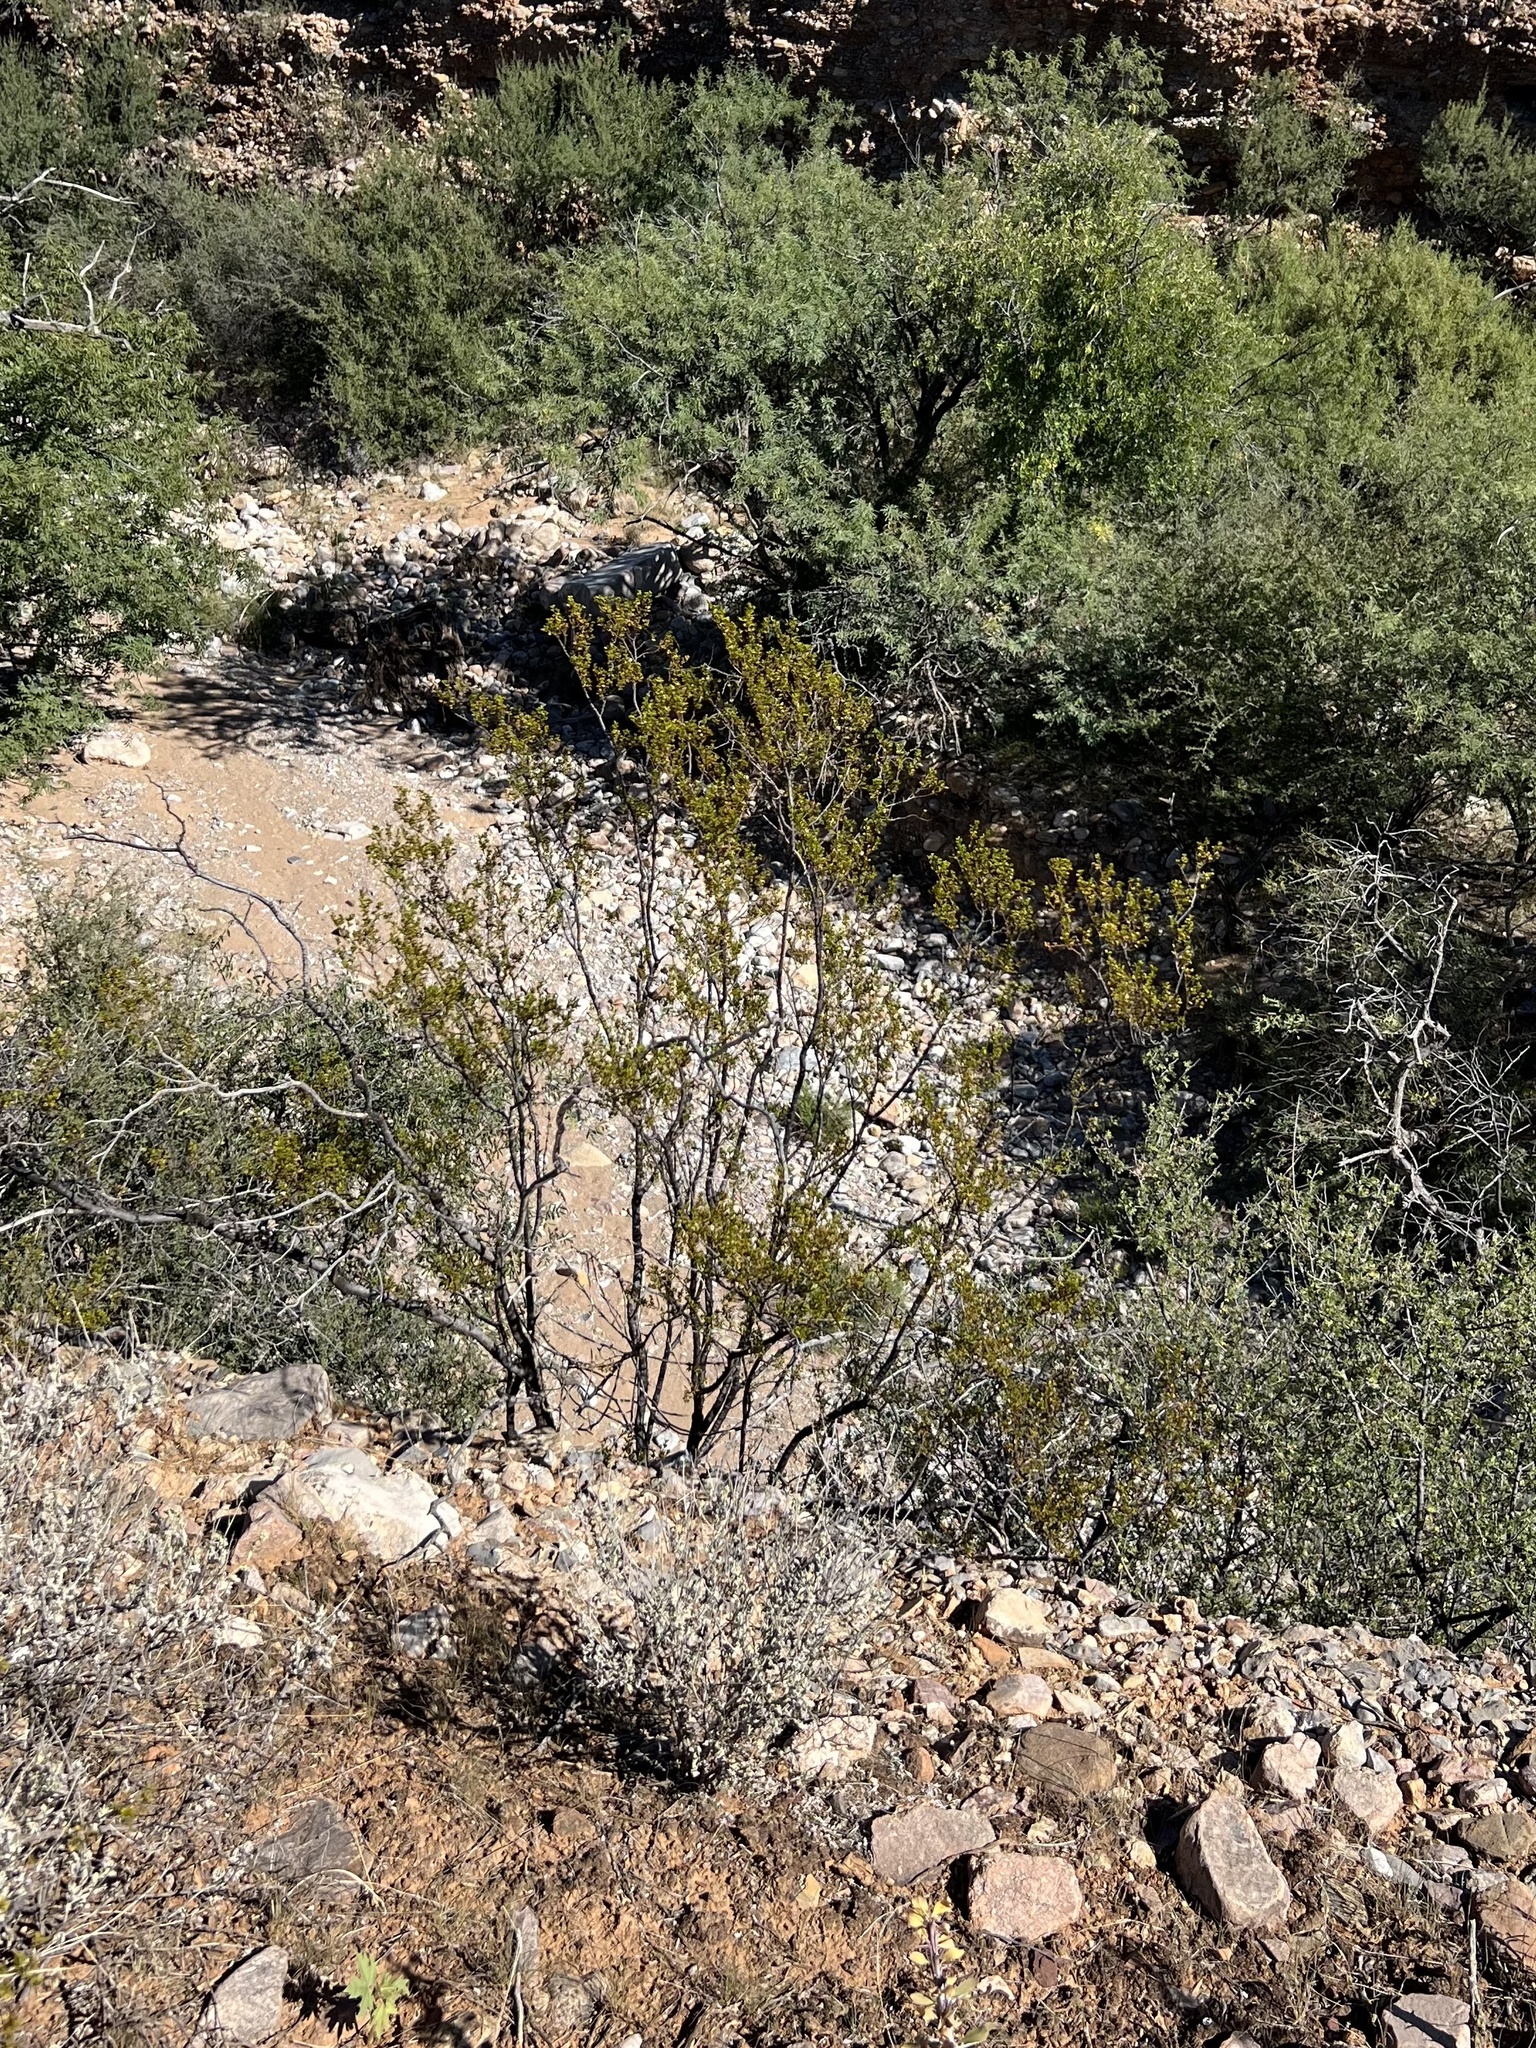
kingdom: Plantae
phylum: Tracheophyta
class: Magnoliopsida
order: Zygophyllales
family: Zygophyllaceae
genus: Larrea
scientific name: Larrea tridentata
